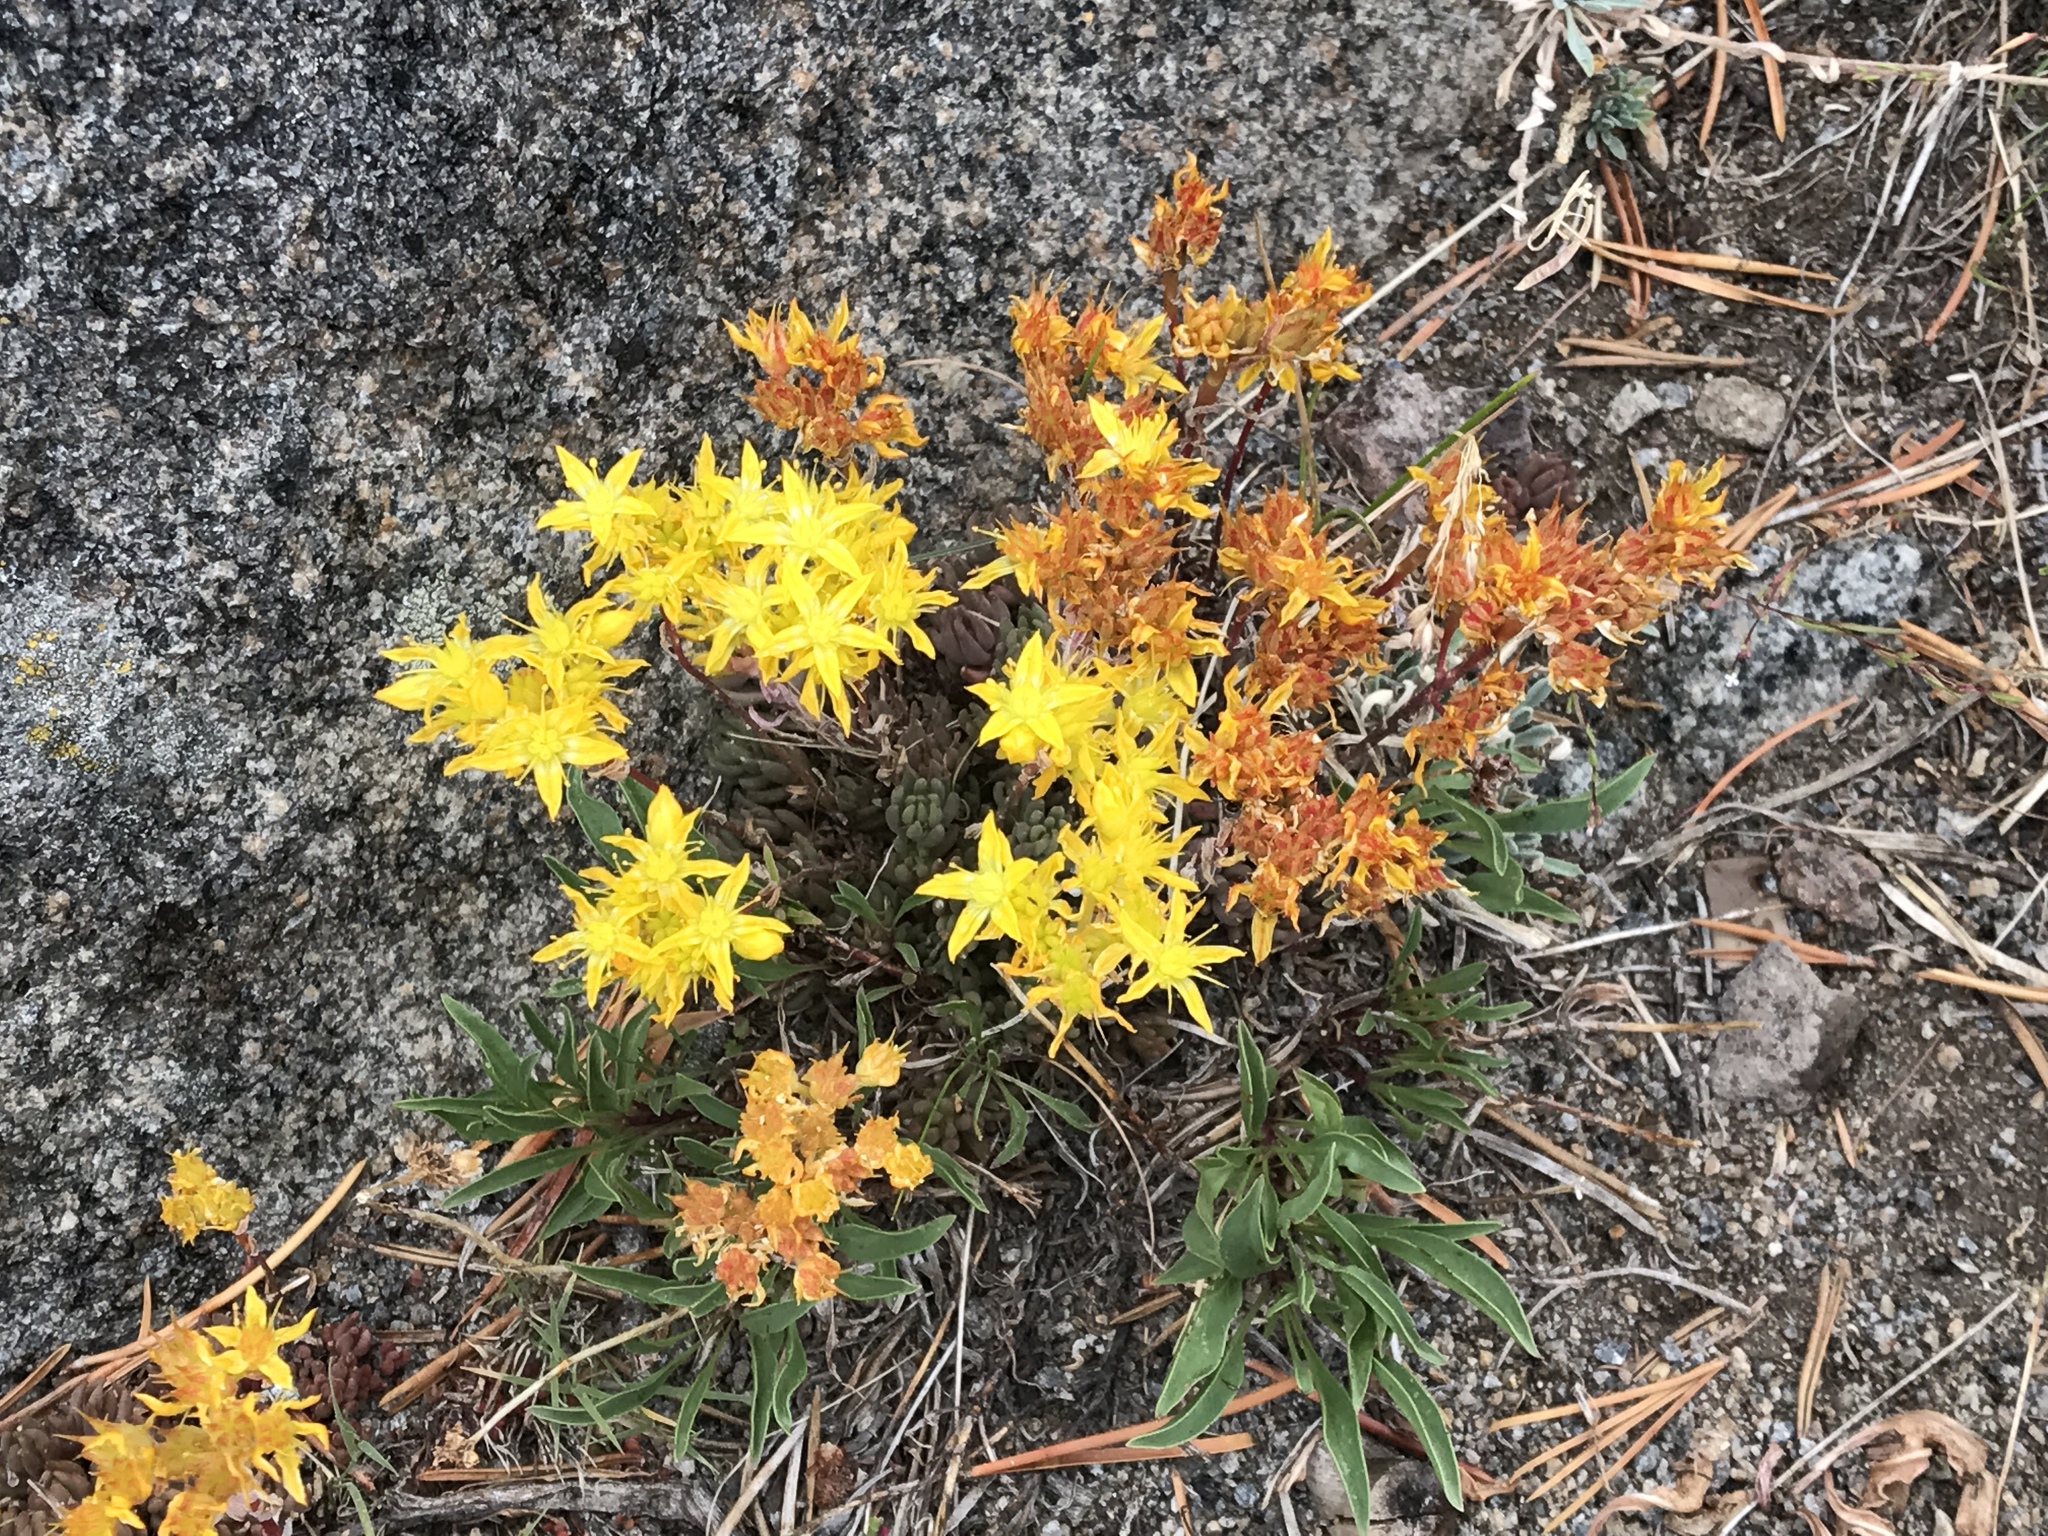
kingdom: Plantae
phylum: Tracheophyta
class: Magnoliopsida
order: Saxifragales
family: Crassulaceae
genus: Sedum
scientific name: Sedum lanceolatum
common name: Common stonecrop
